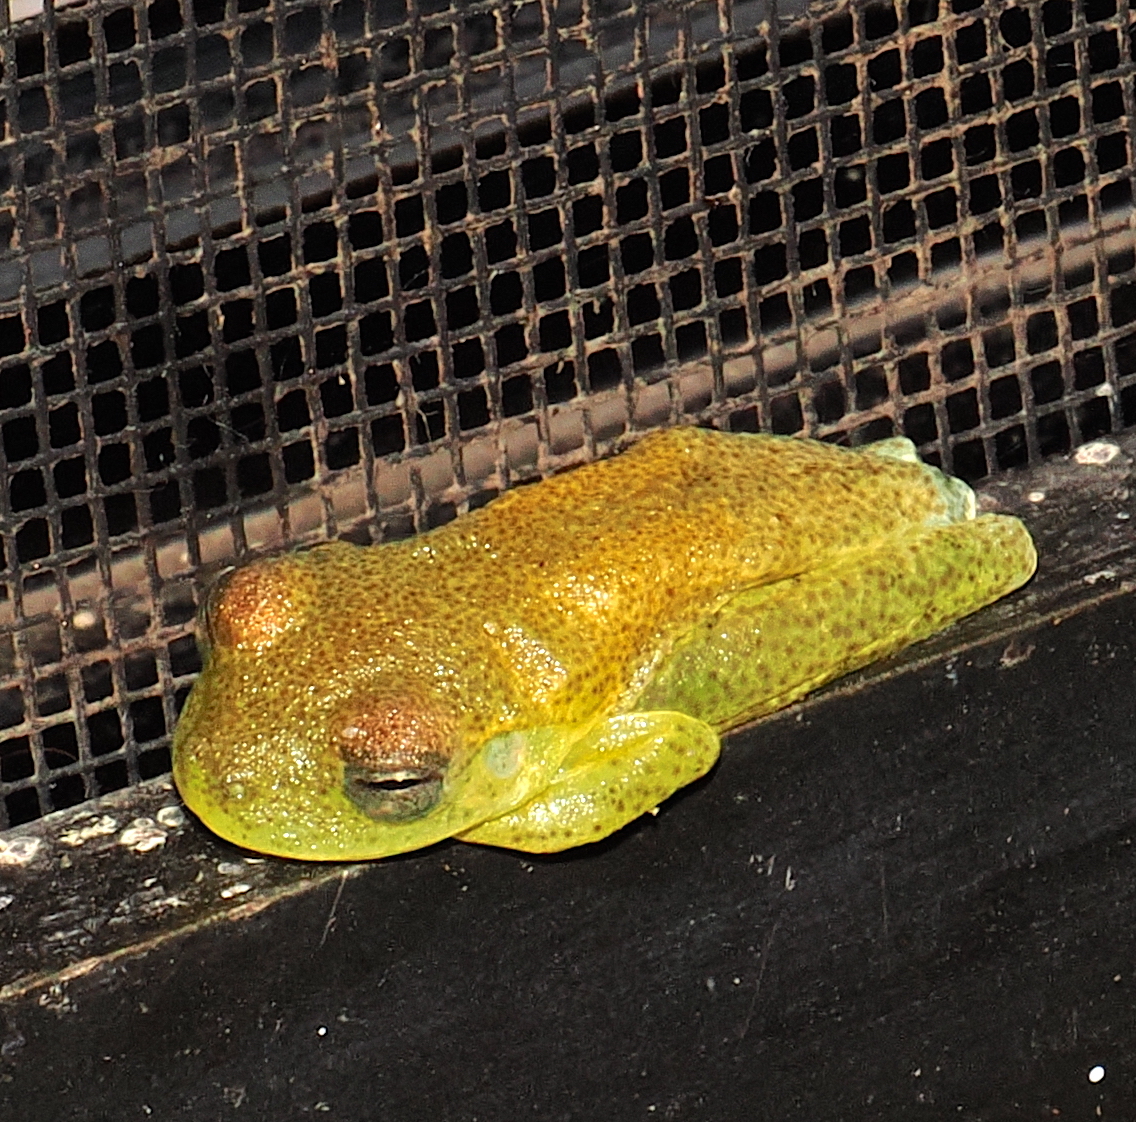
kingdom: Animalia
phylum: Chordata
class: Amphibia
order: Anura
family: Hylidae
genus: Boana
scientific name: Boana platanera
